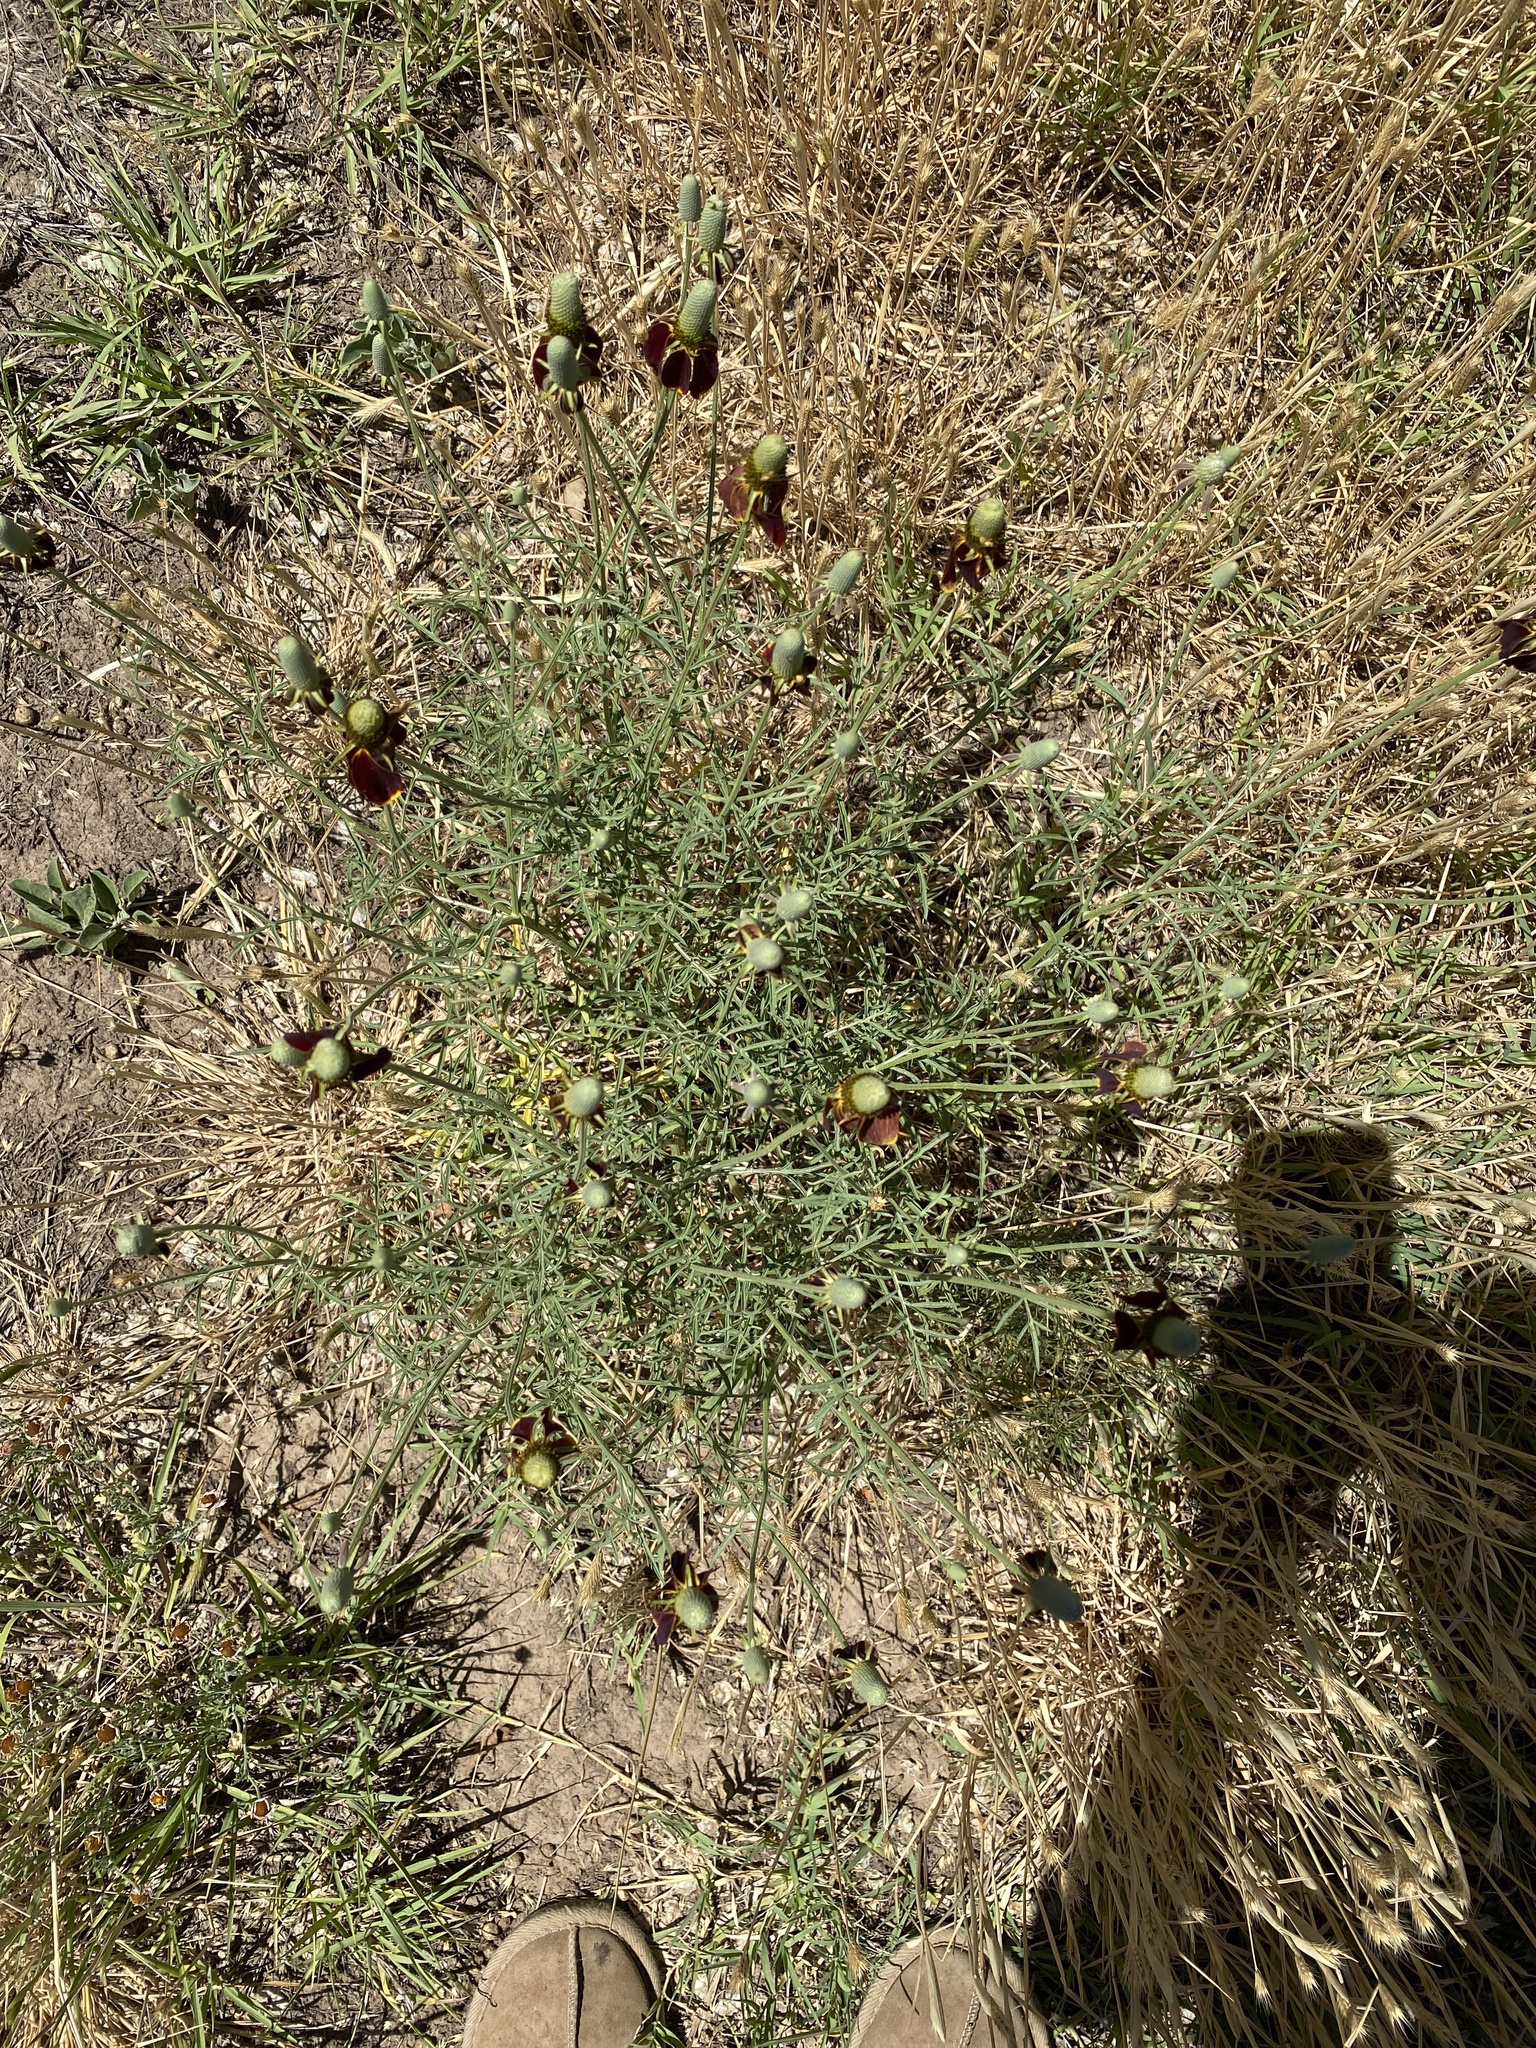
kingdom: Plantae
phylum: Tracheophyta
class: Magnoliopsida
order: Asterales
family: Asteraceae
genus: Ratibida
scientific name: Ratibida columnifera
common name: Prairie coneflower
